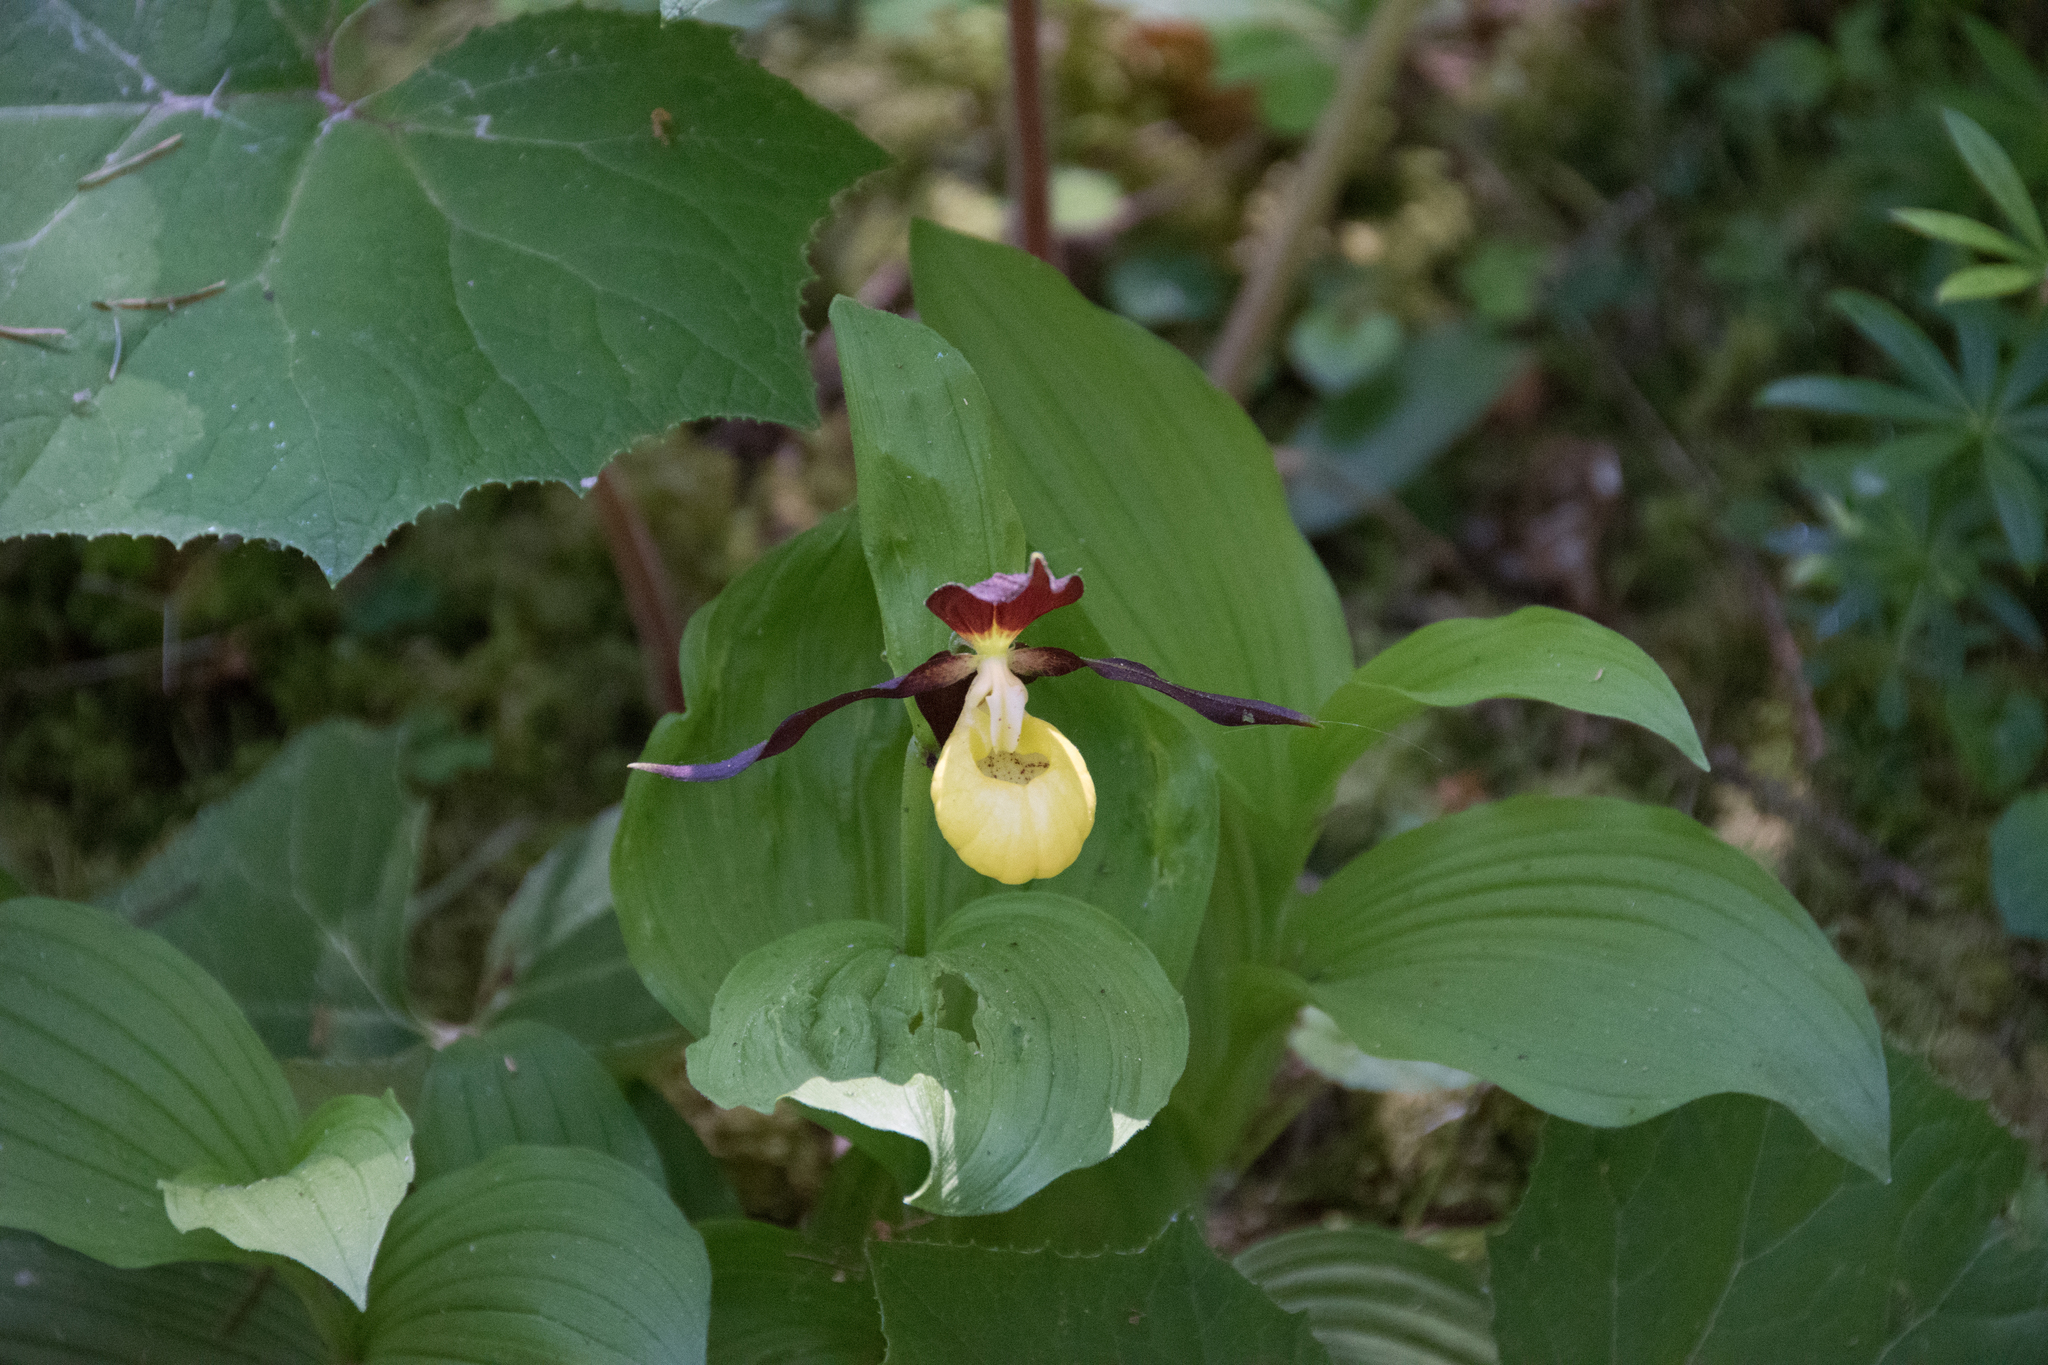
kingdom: Plantae
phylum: Tracheophyta
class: Liliopsida
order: Asparagales
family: Orchidaceae
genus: Cypripedium
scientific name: Cypripedium calceolus
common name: Lady's-slipper
